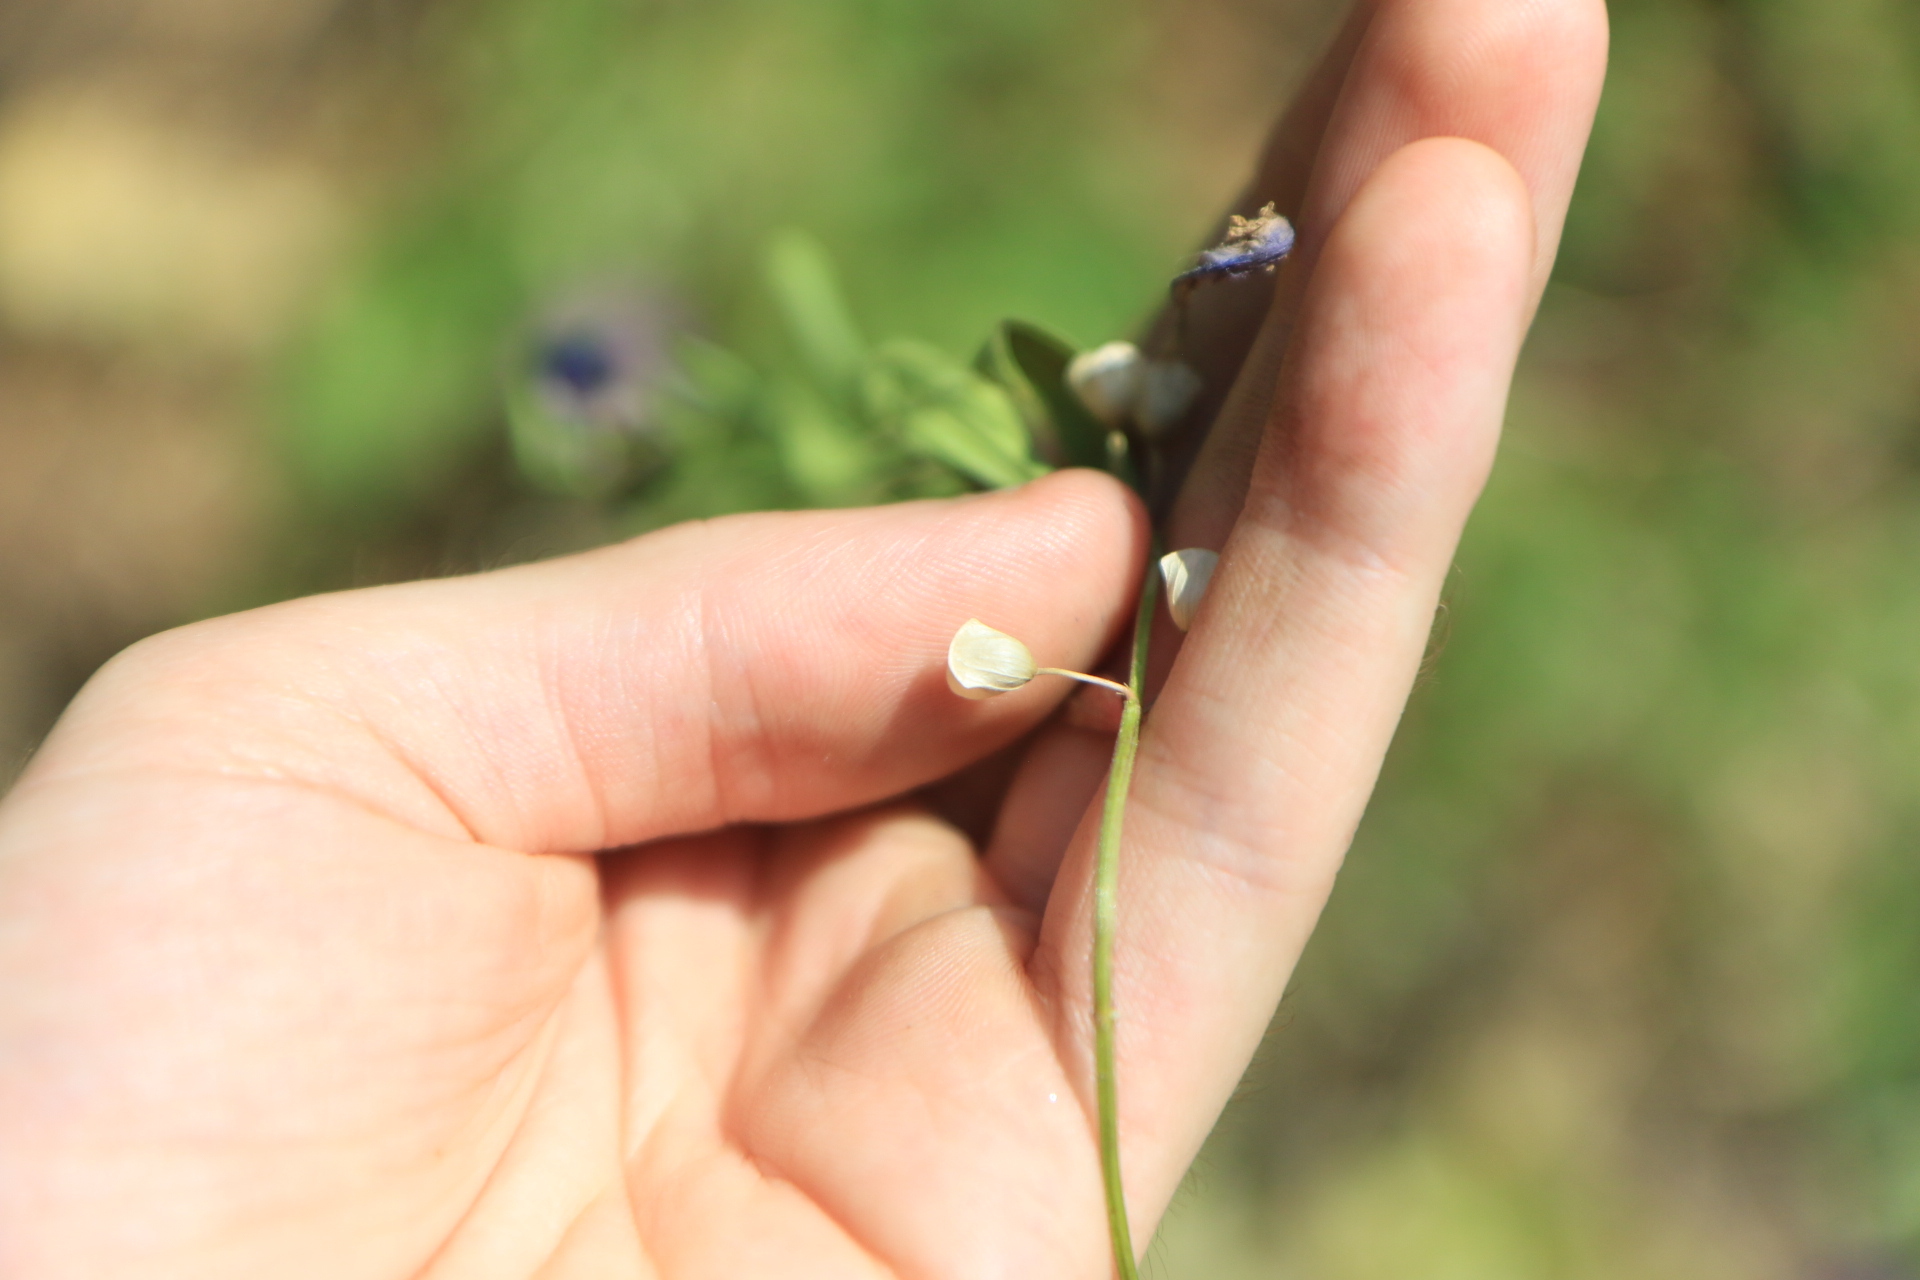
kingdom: Plantae
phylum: Tracheophyta
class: Magnoliopsida
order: Lamiales
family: Lamiaceae
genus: Scutellaria
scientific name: Scutellaria angustifolia
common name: Narrow-leaved skullcap
